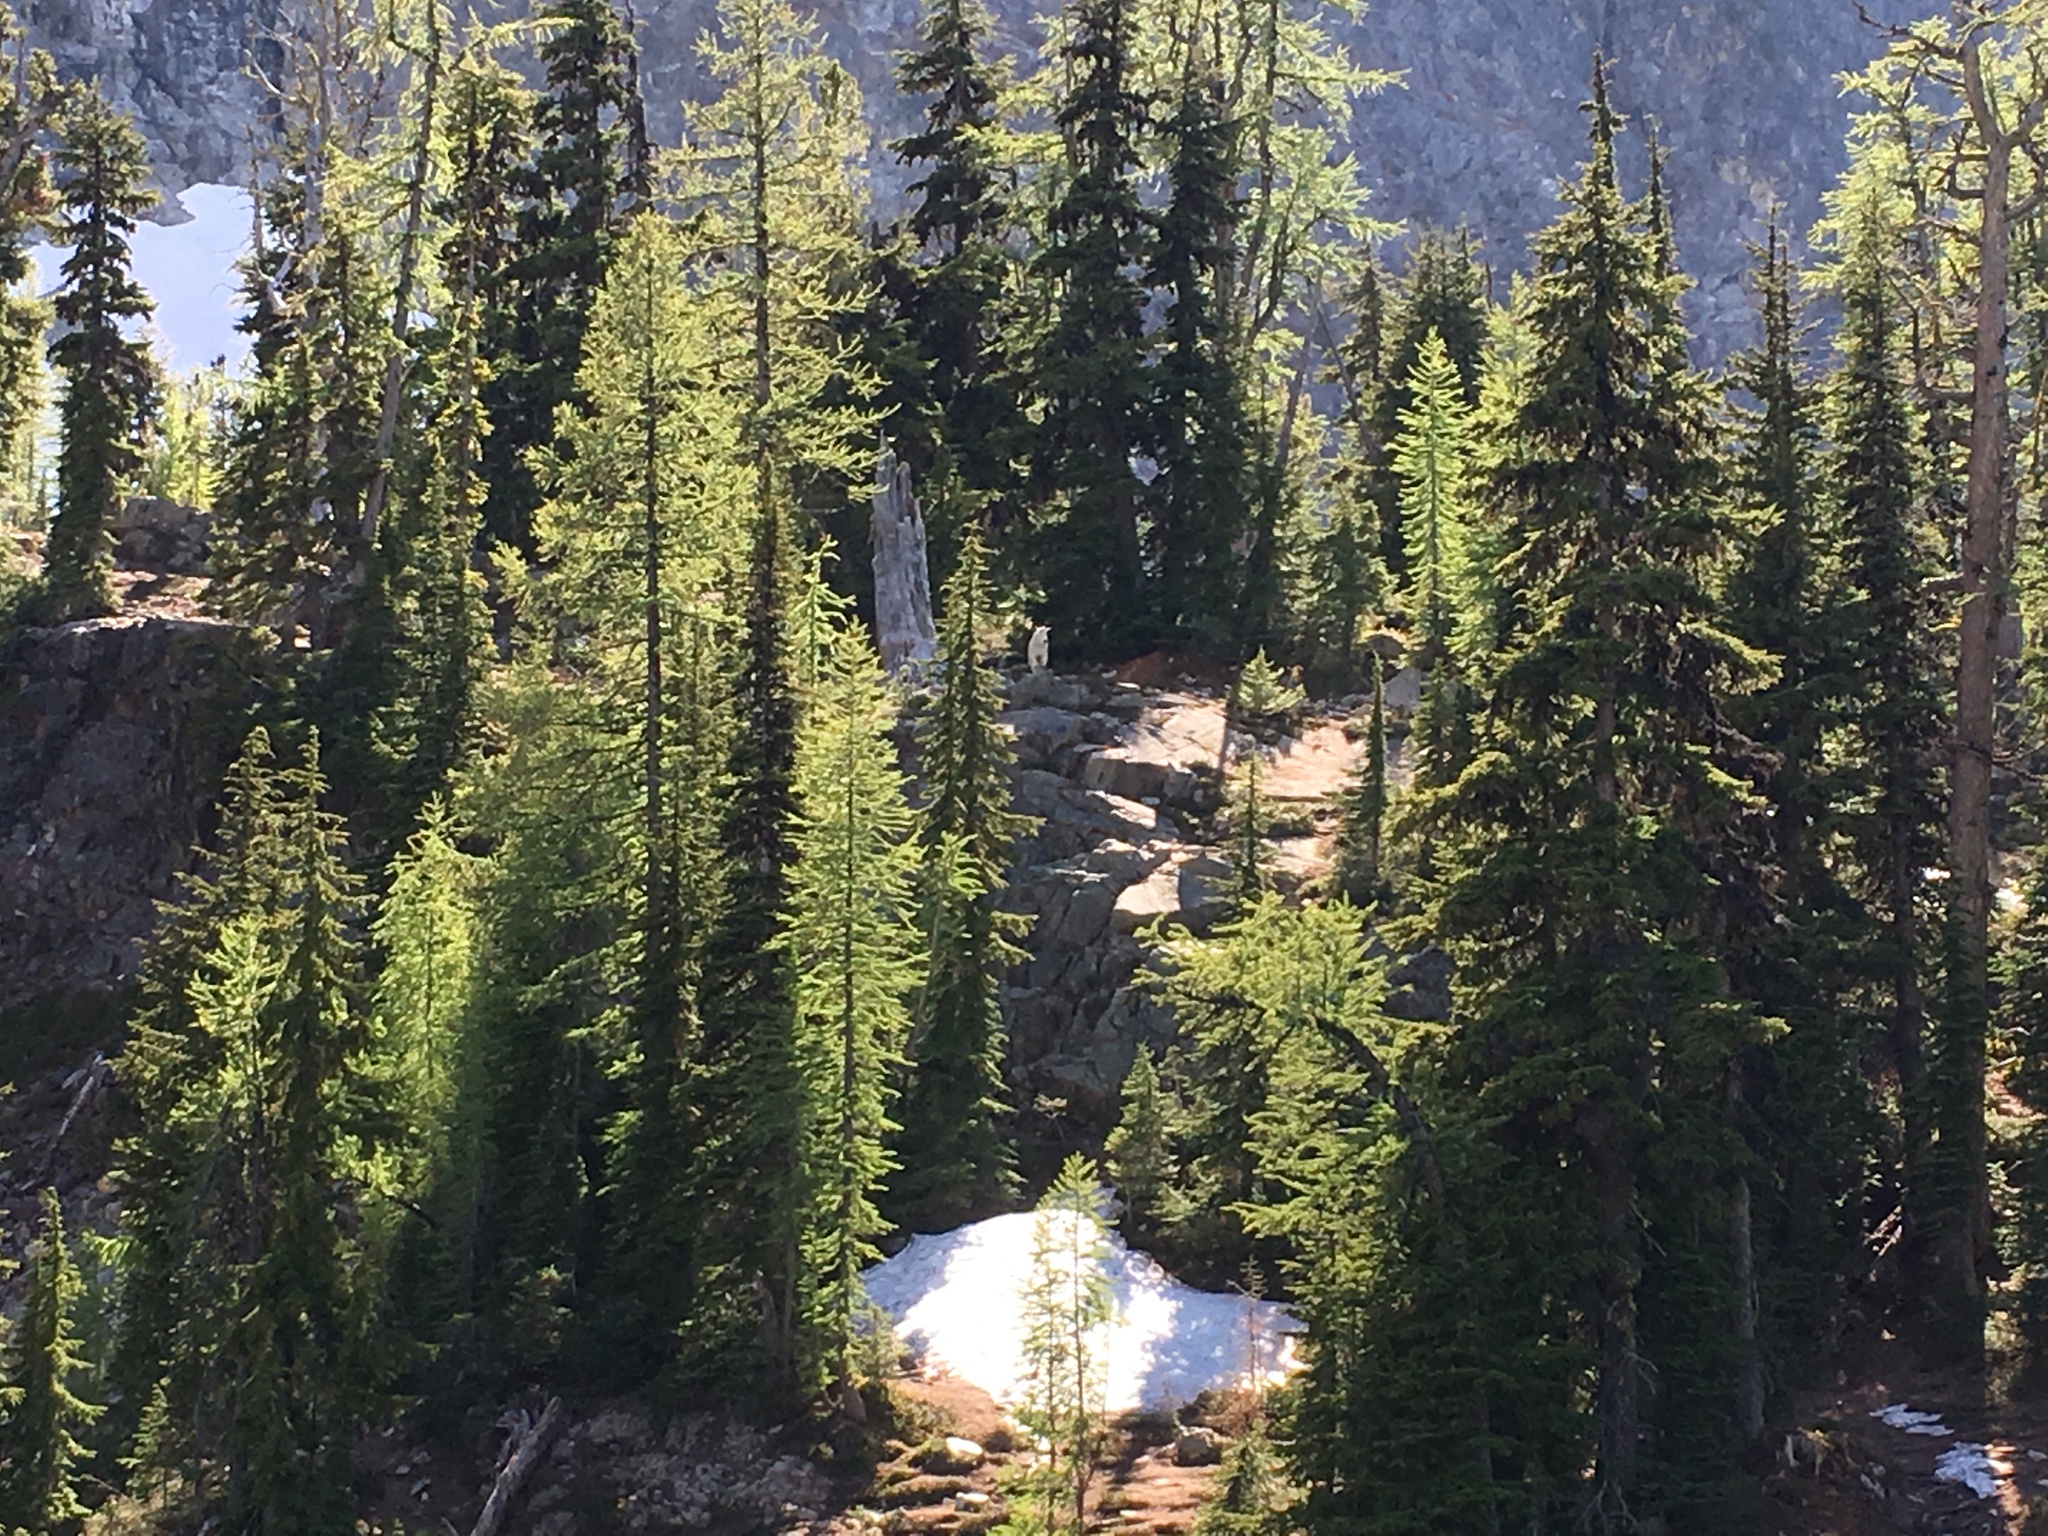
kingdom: Animalia
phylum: Chordata
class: Mammalia
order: Artiodactyla
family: Bovidae
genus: Oreamnos
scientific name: Oreamnos americanus
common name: Mountain goat
